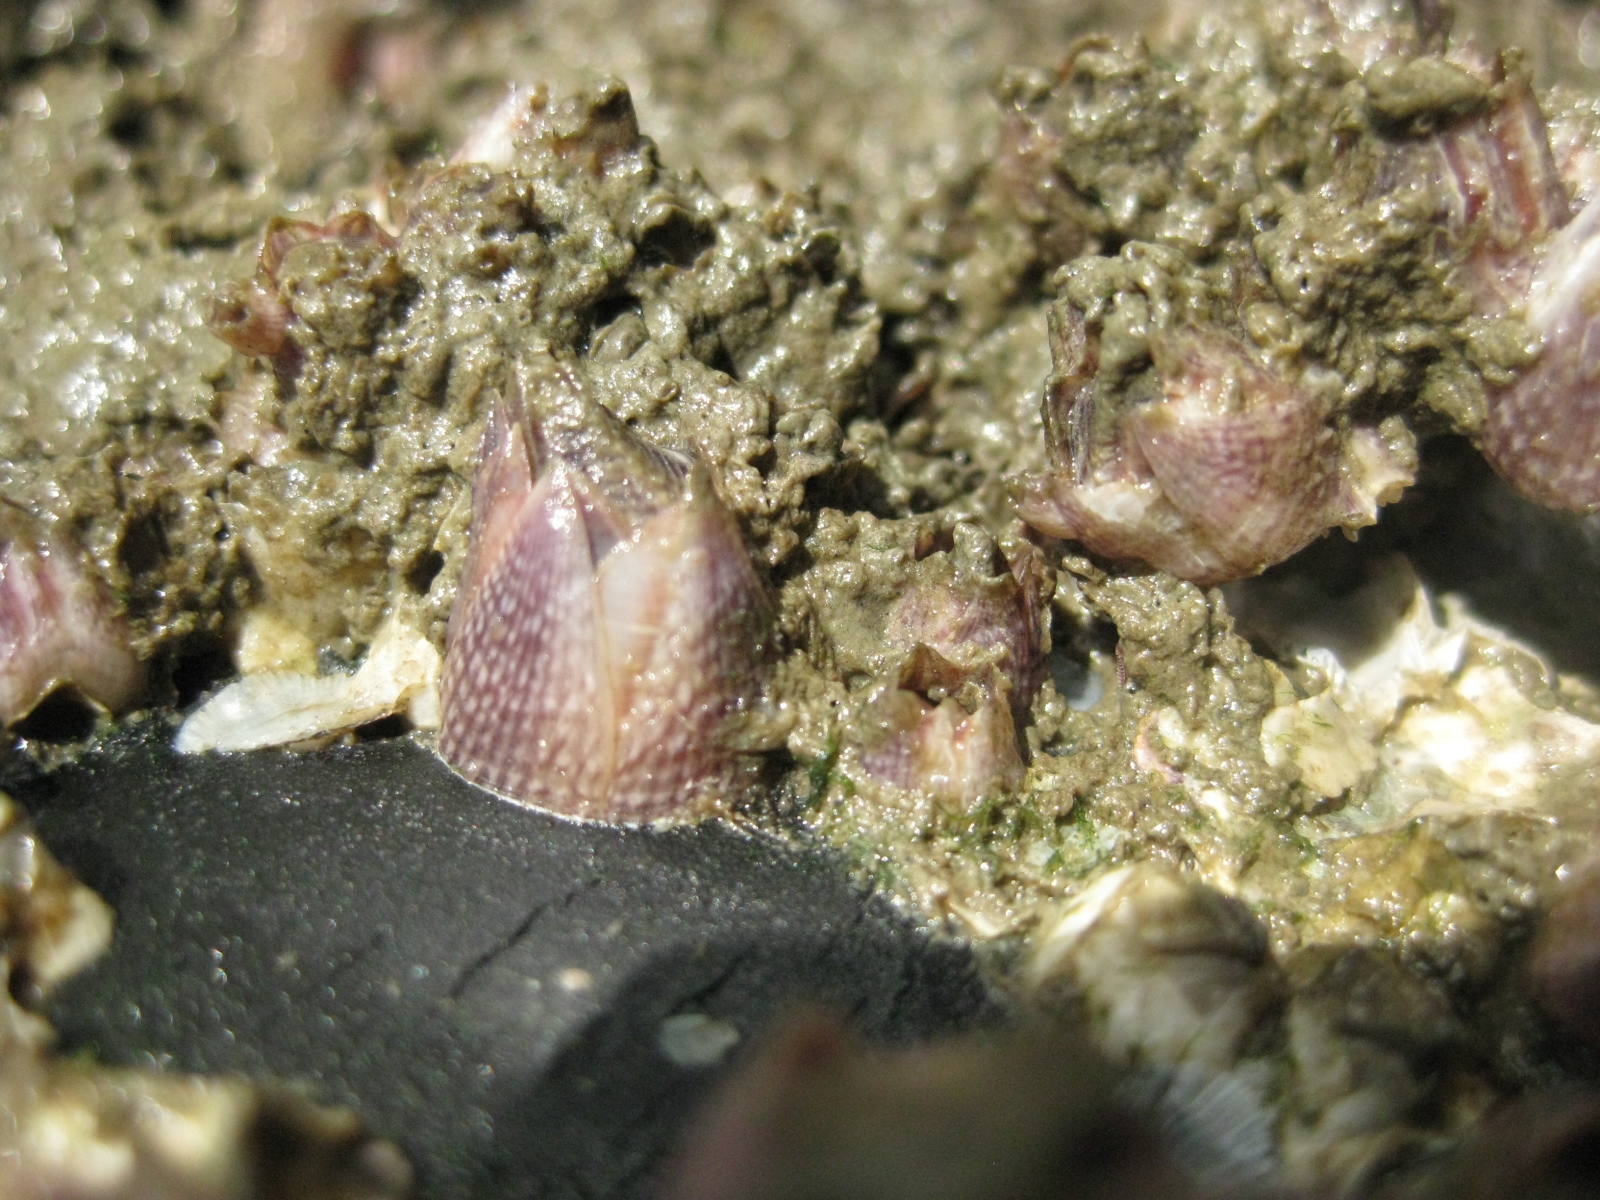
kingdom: Animalia
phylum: Arthropoda
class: Maxillopoda
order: Sessilia
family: Balanidae
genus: Fistulobalanus
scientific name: Fistulobalanus kondakovi
